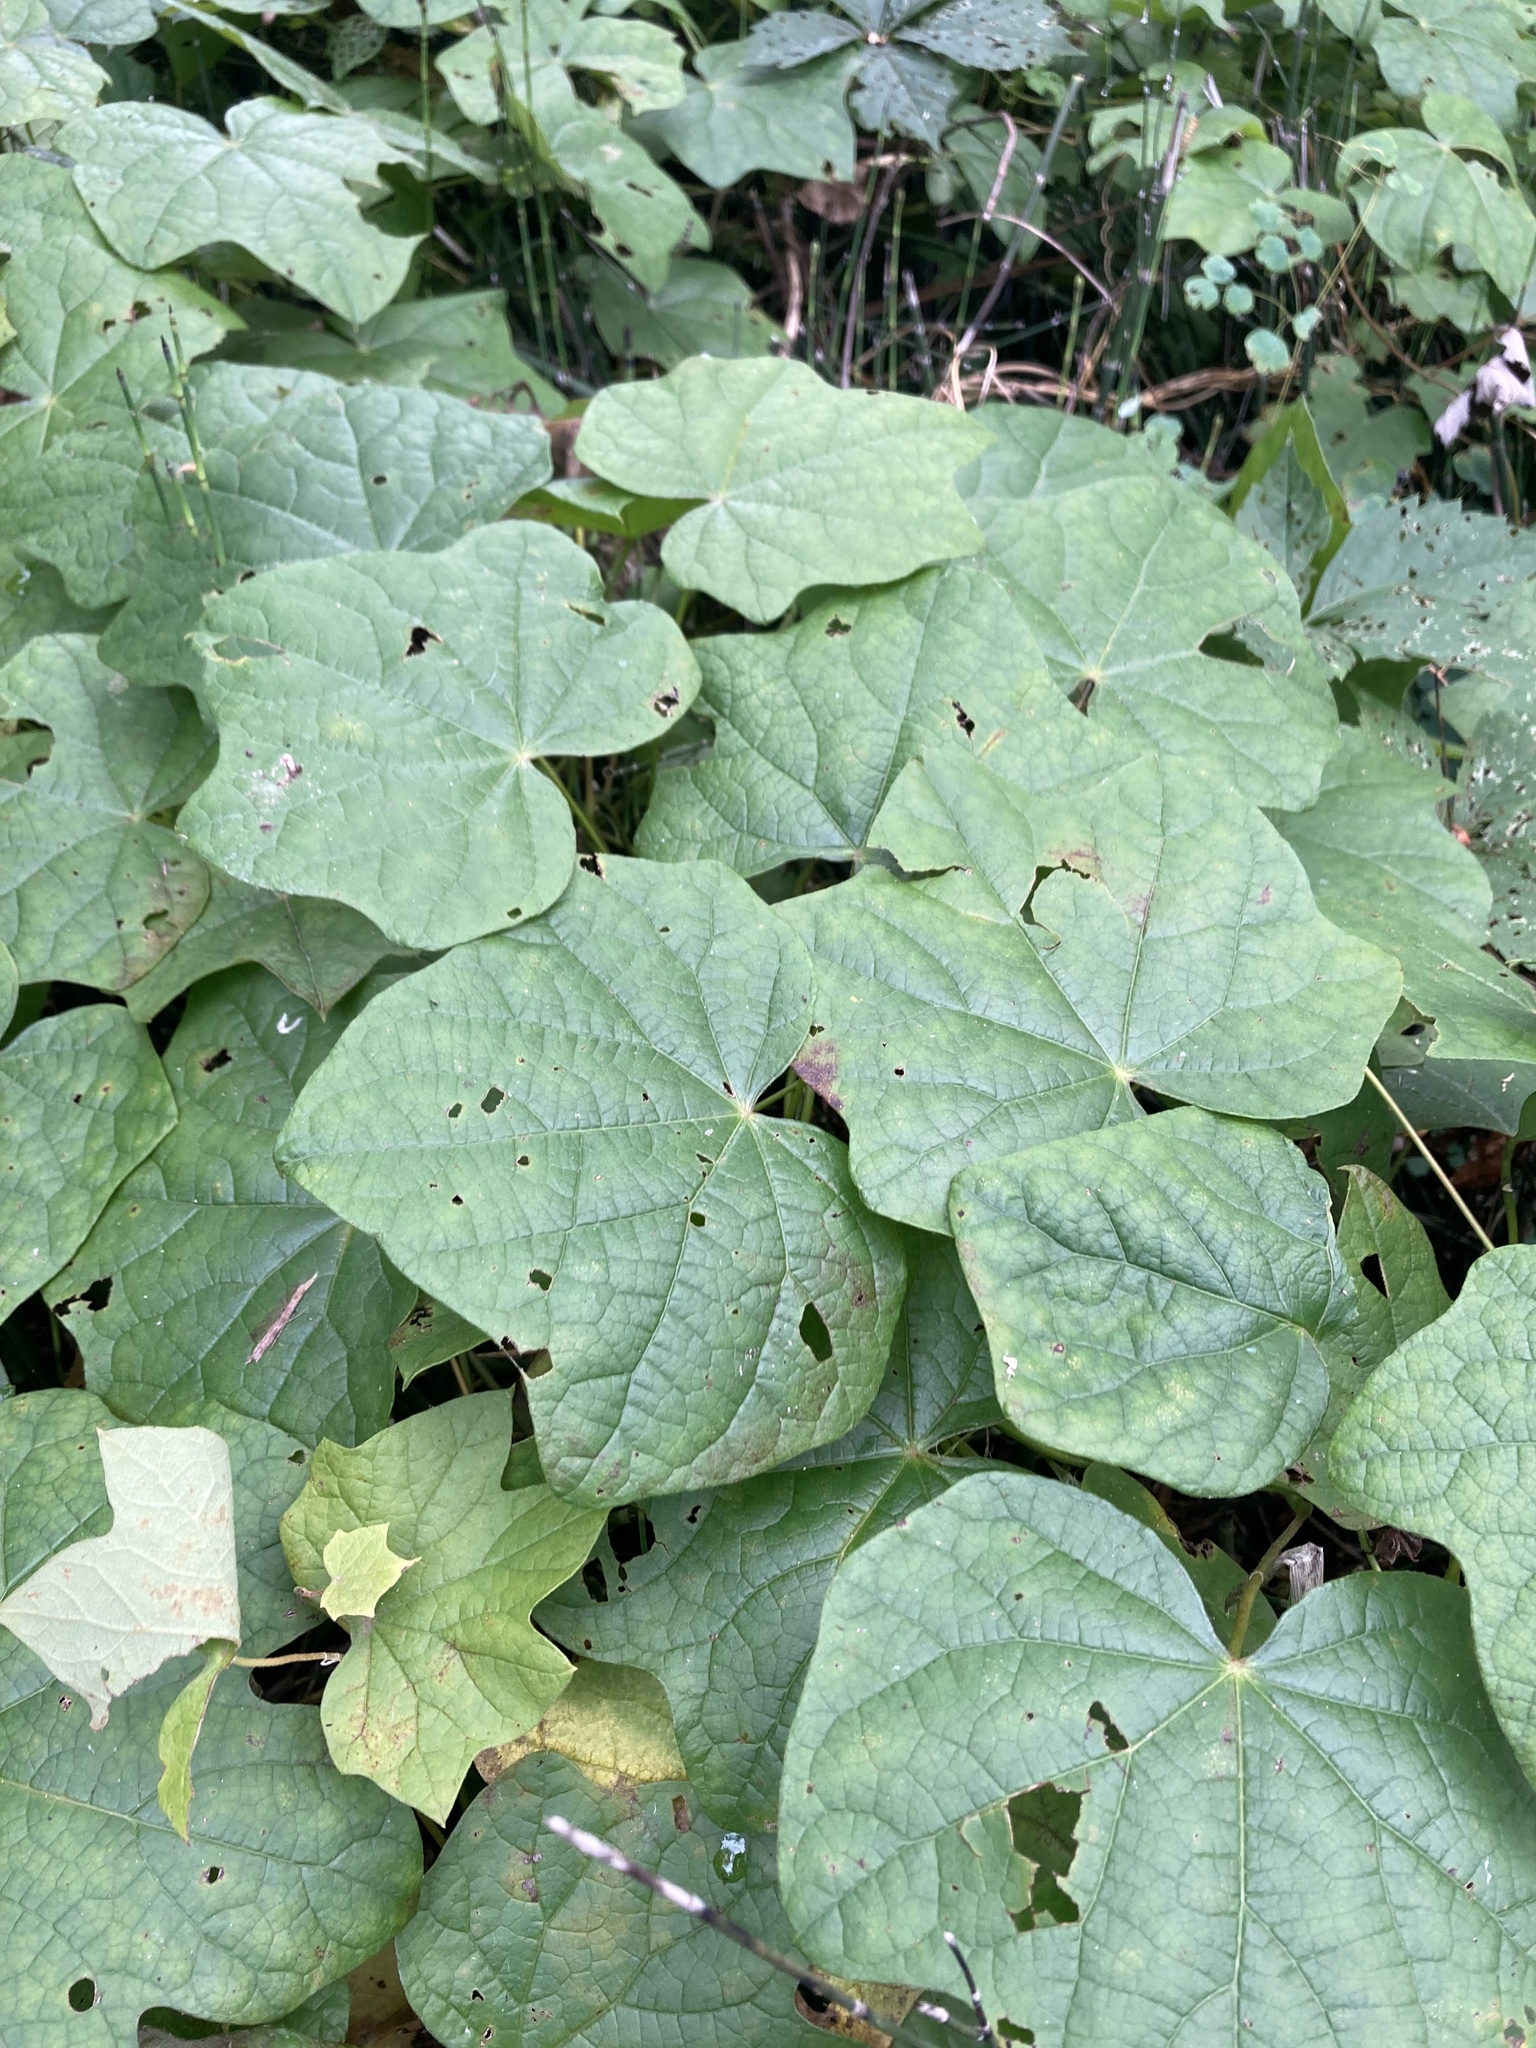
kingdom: Plantae
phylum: Tracheophyta
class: Magnoliopsida
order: Ranunculales
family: Menispermaceae
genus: Menispermum
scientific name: Menispermum canadense
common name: Moonseed
